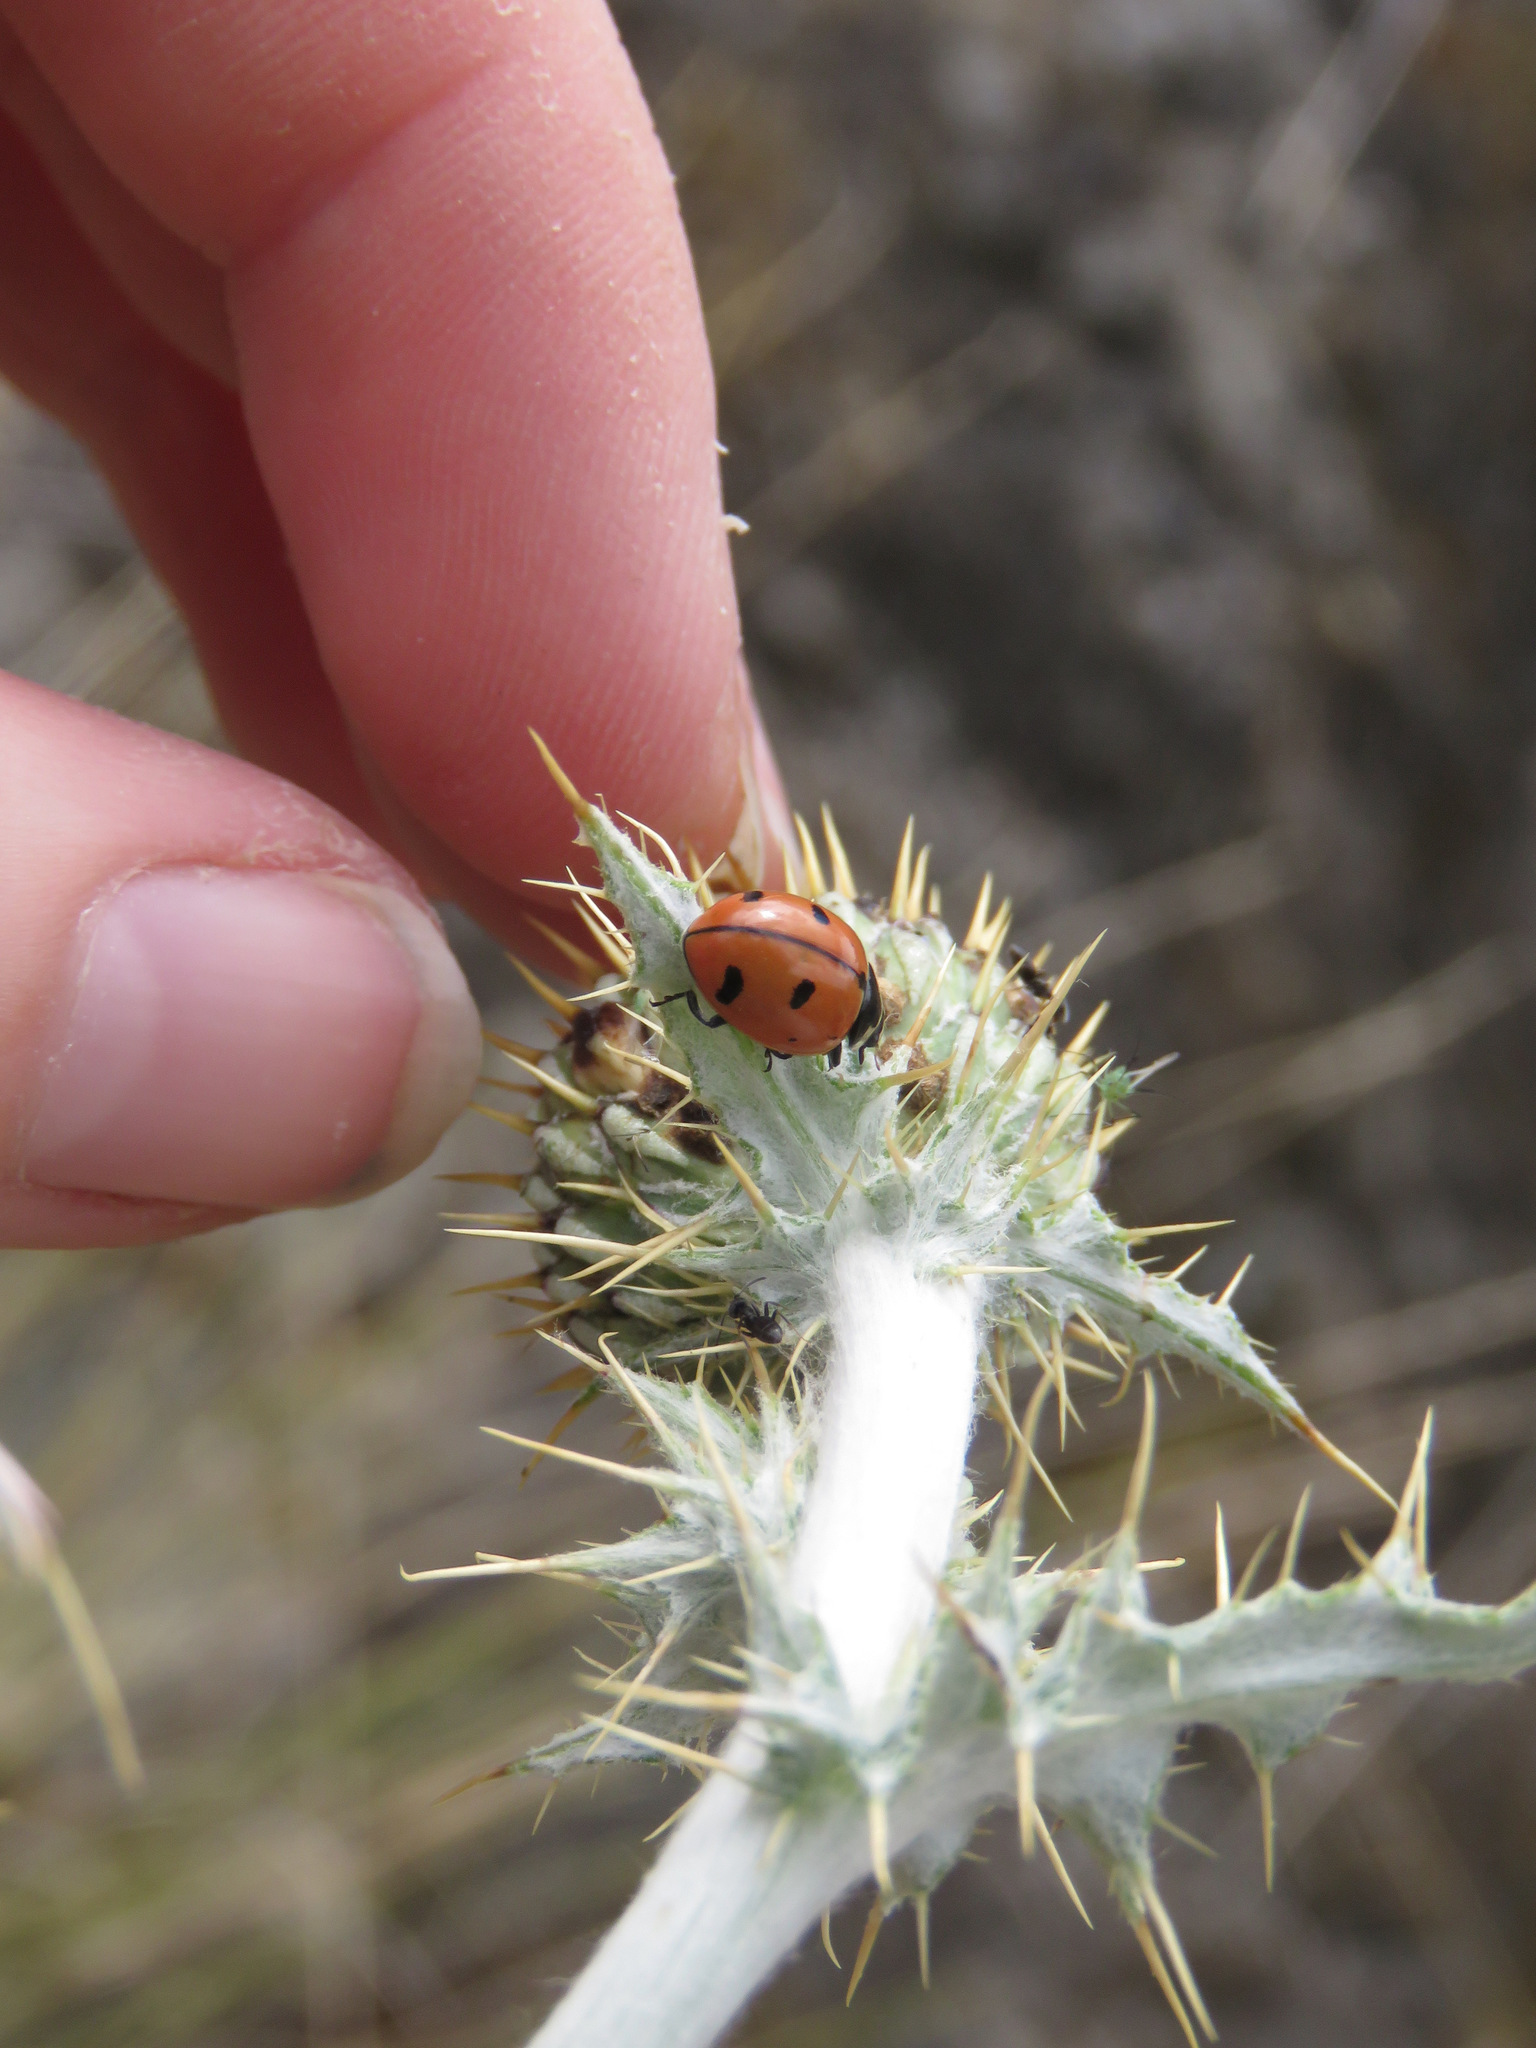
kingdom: Animalia
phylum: Arthropoda
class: Insecta
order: Coleoptera
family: Coccinellidae
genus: Coccinella
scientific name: Coccinella novemnotata
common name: Nine-spotted lady beetle
